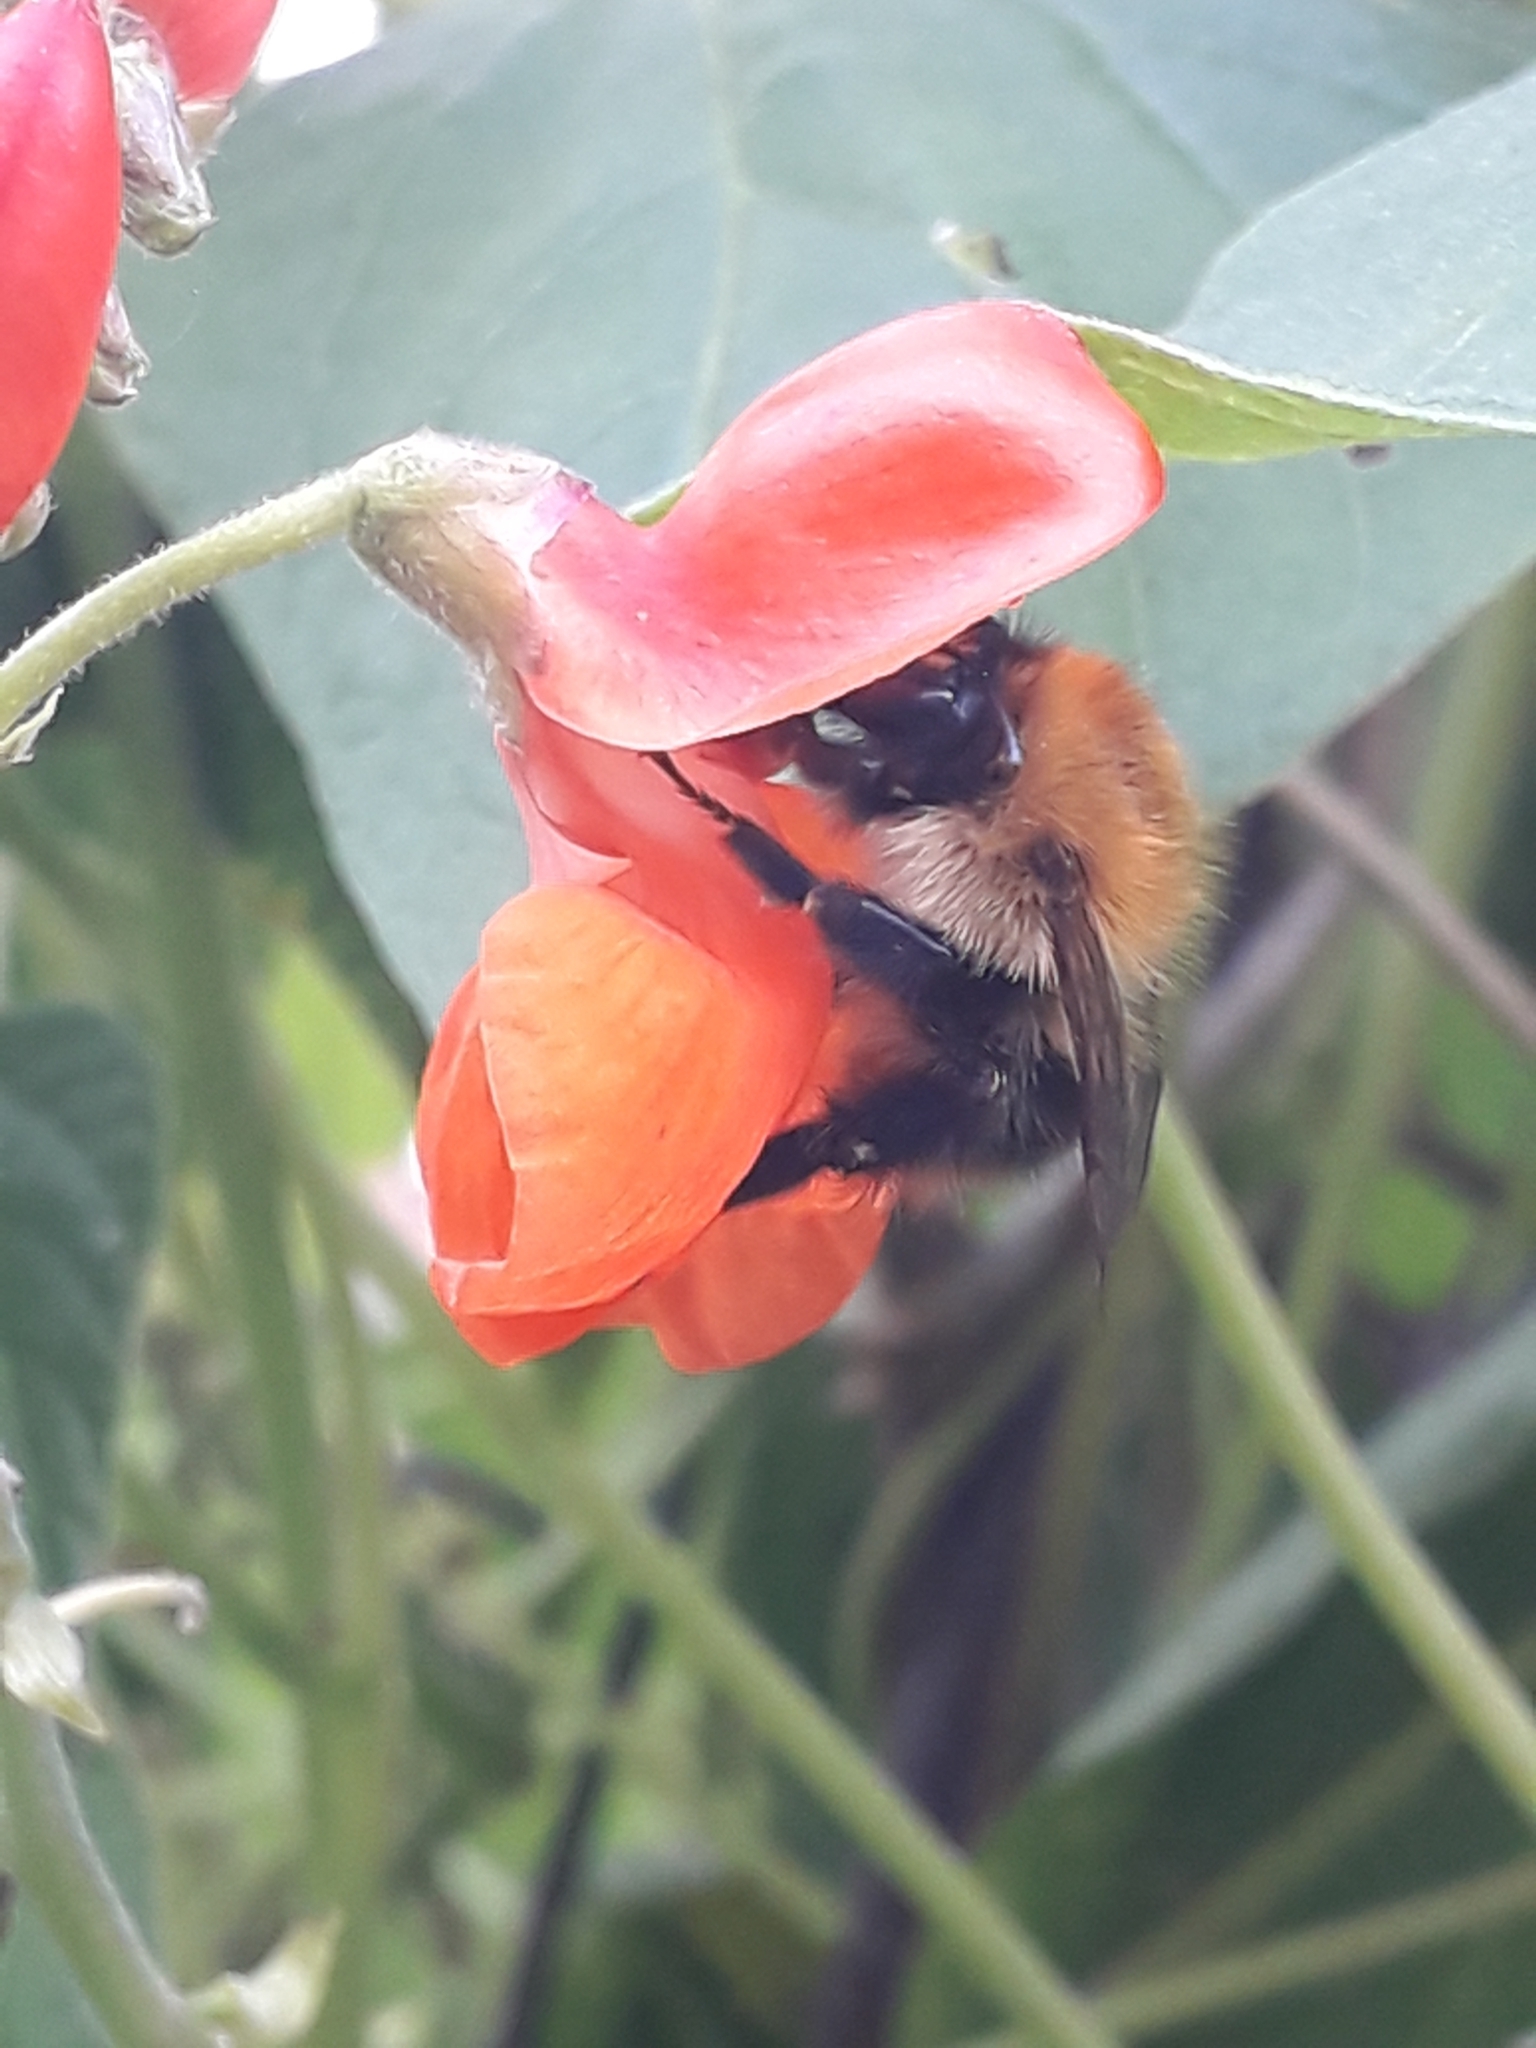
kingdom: Animalia
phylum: Arthropoda
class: Insecta
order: Hymenoptera
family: Apidae
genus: Bombus
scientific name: Bombus pascuorum
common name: Common carder bee
